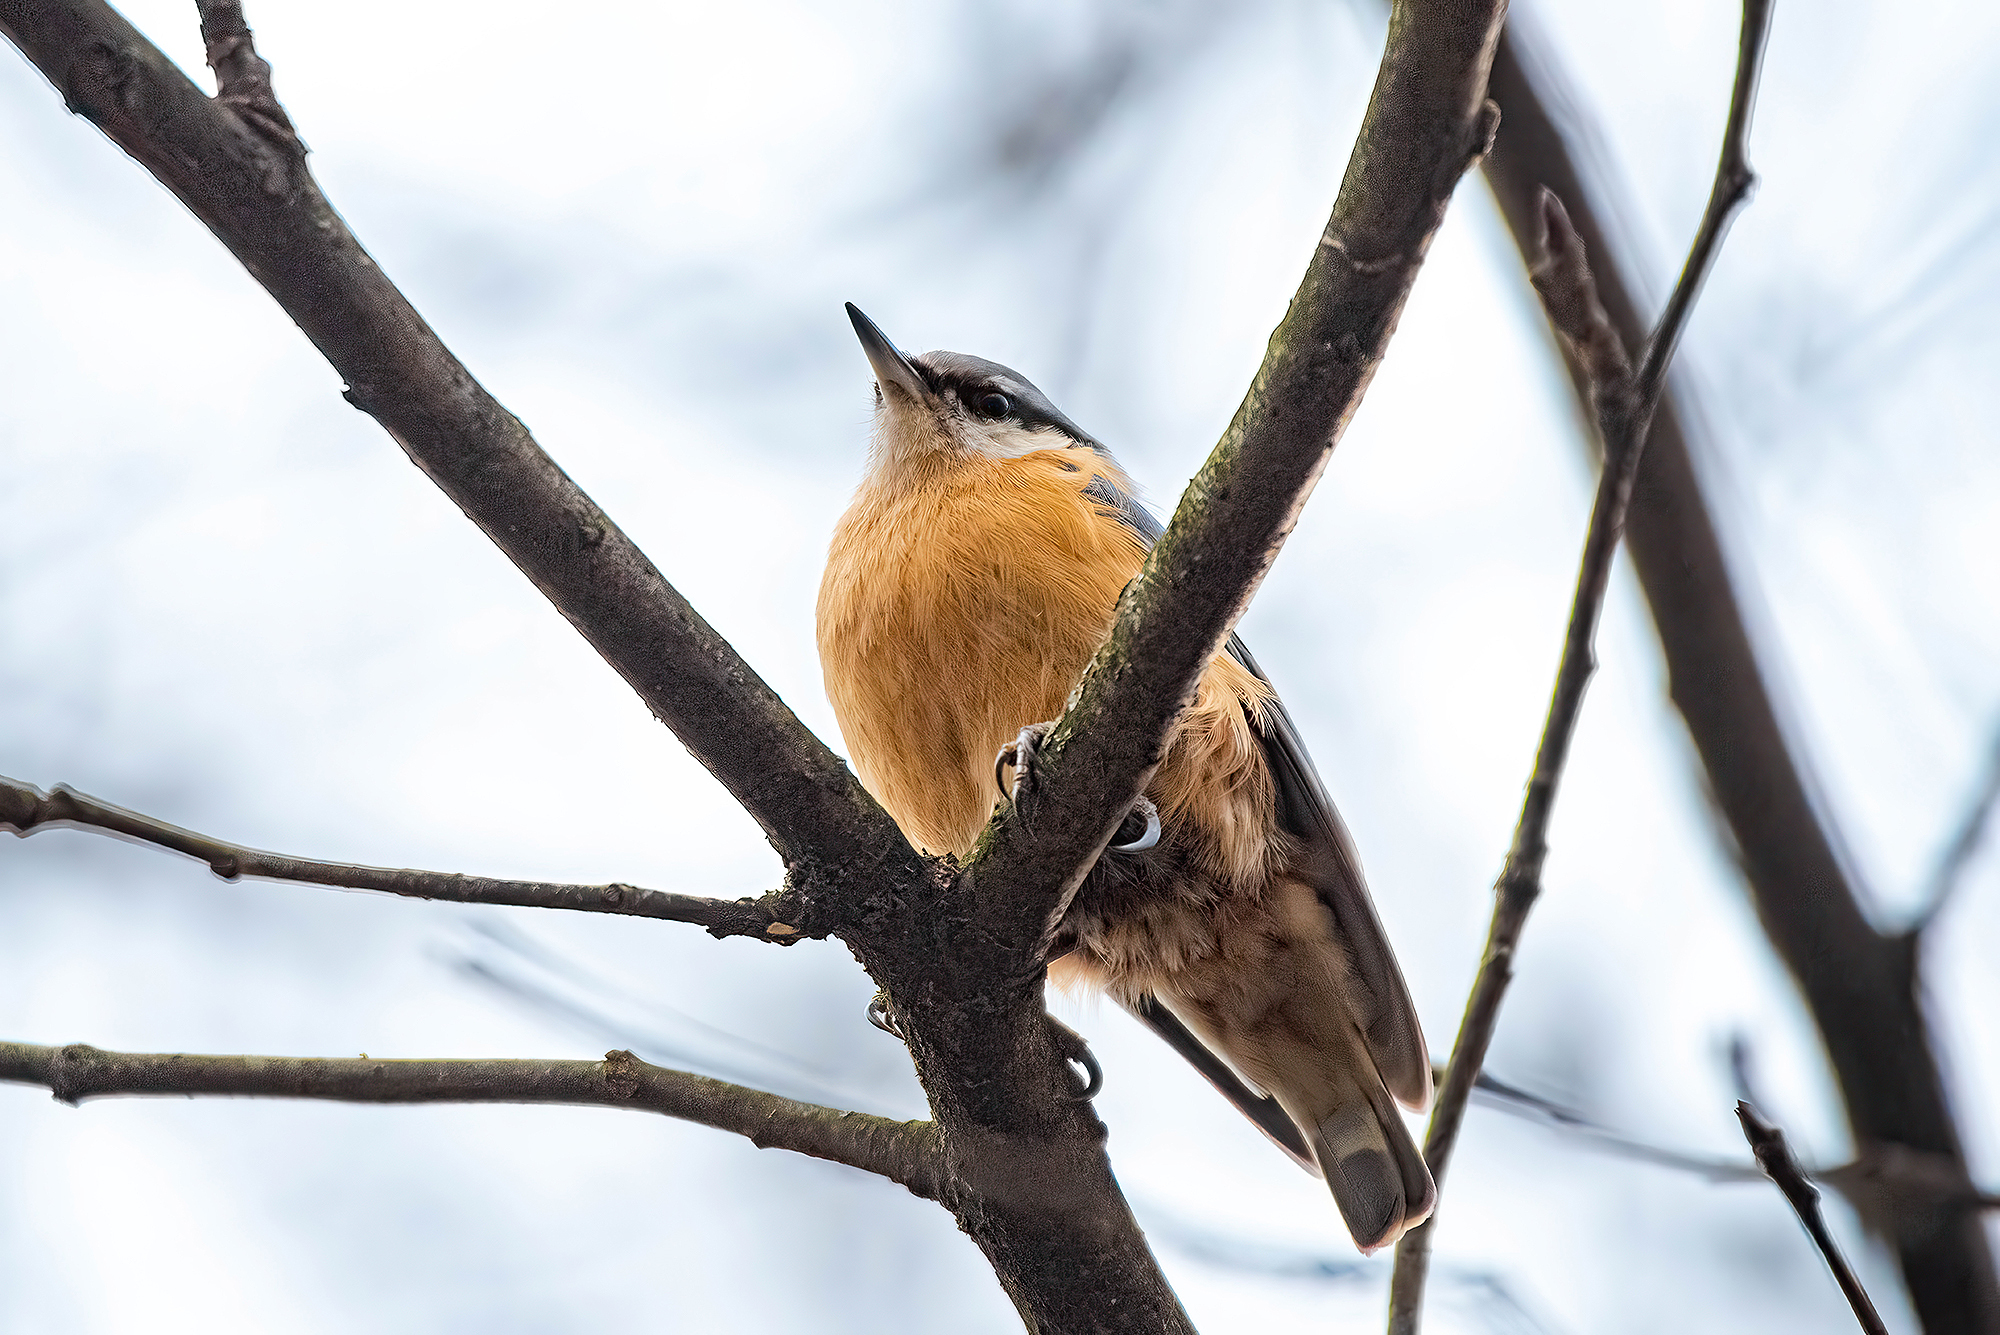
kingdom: Animalia
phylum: Chordata
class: Aves
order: Passeriformes
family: Sittidae
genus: Sitta
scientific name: Sitta europaea
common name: Eurasian nuthatch
